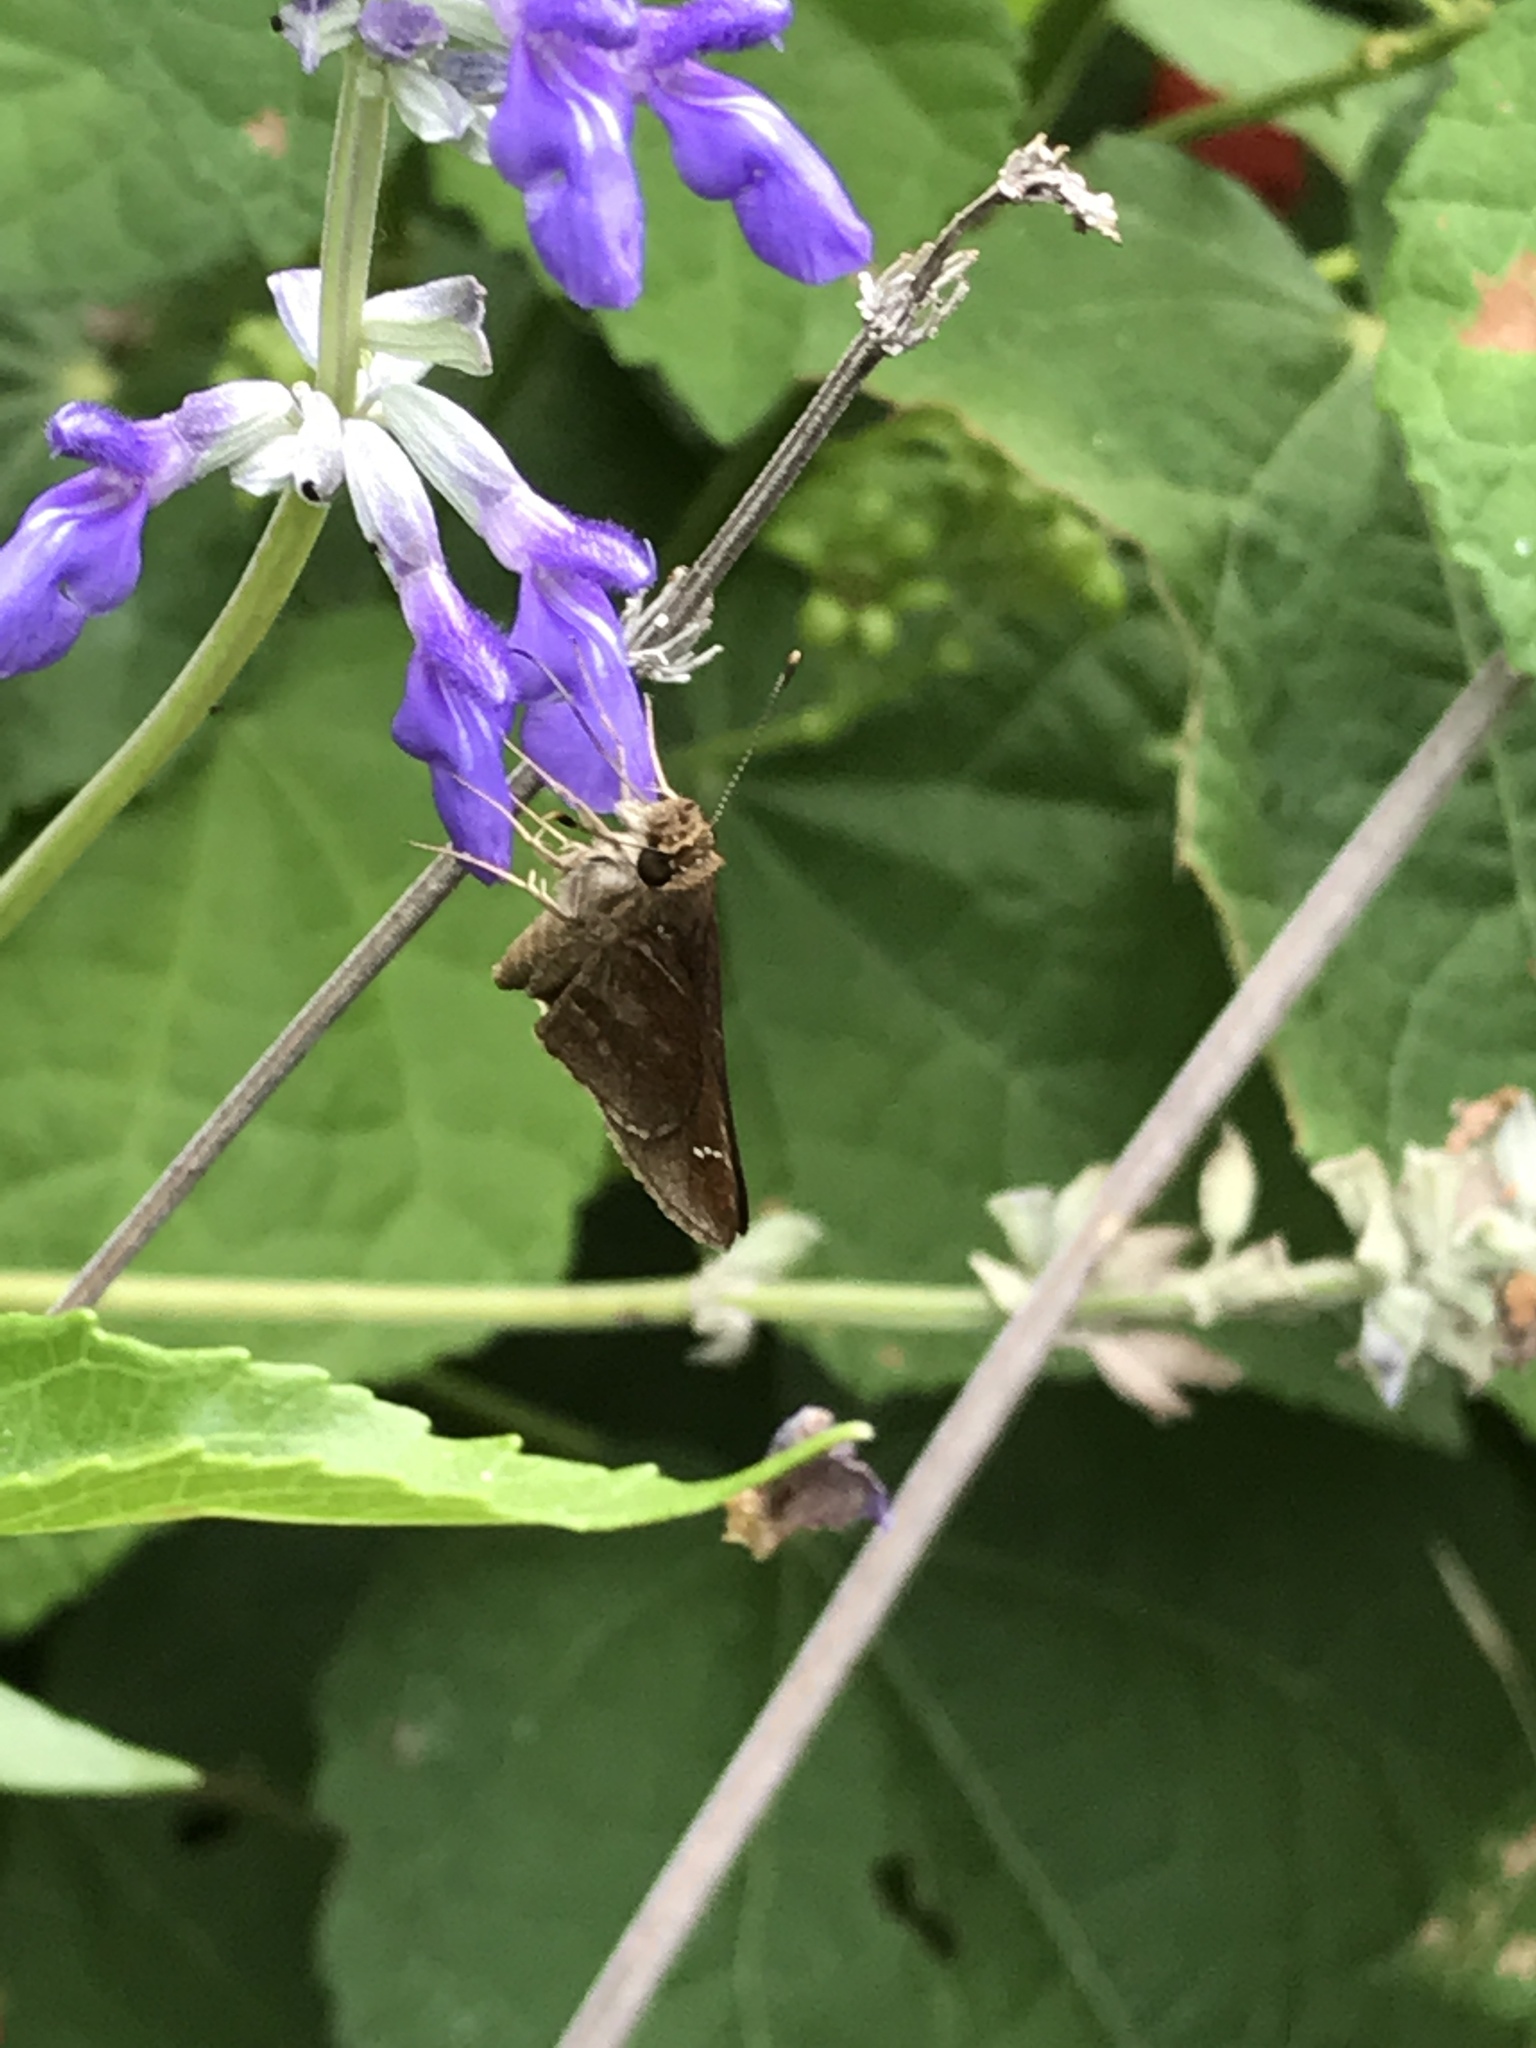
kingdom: Animalia
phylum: Arthropoda
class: Insecta
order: Lepidoptera
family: Hesperiidae
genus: Lerema
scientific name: Lerema accius
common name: Clouded skipper
